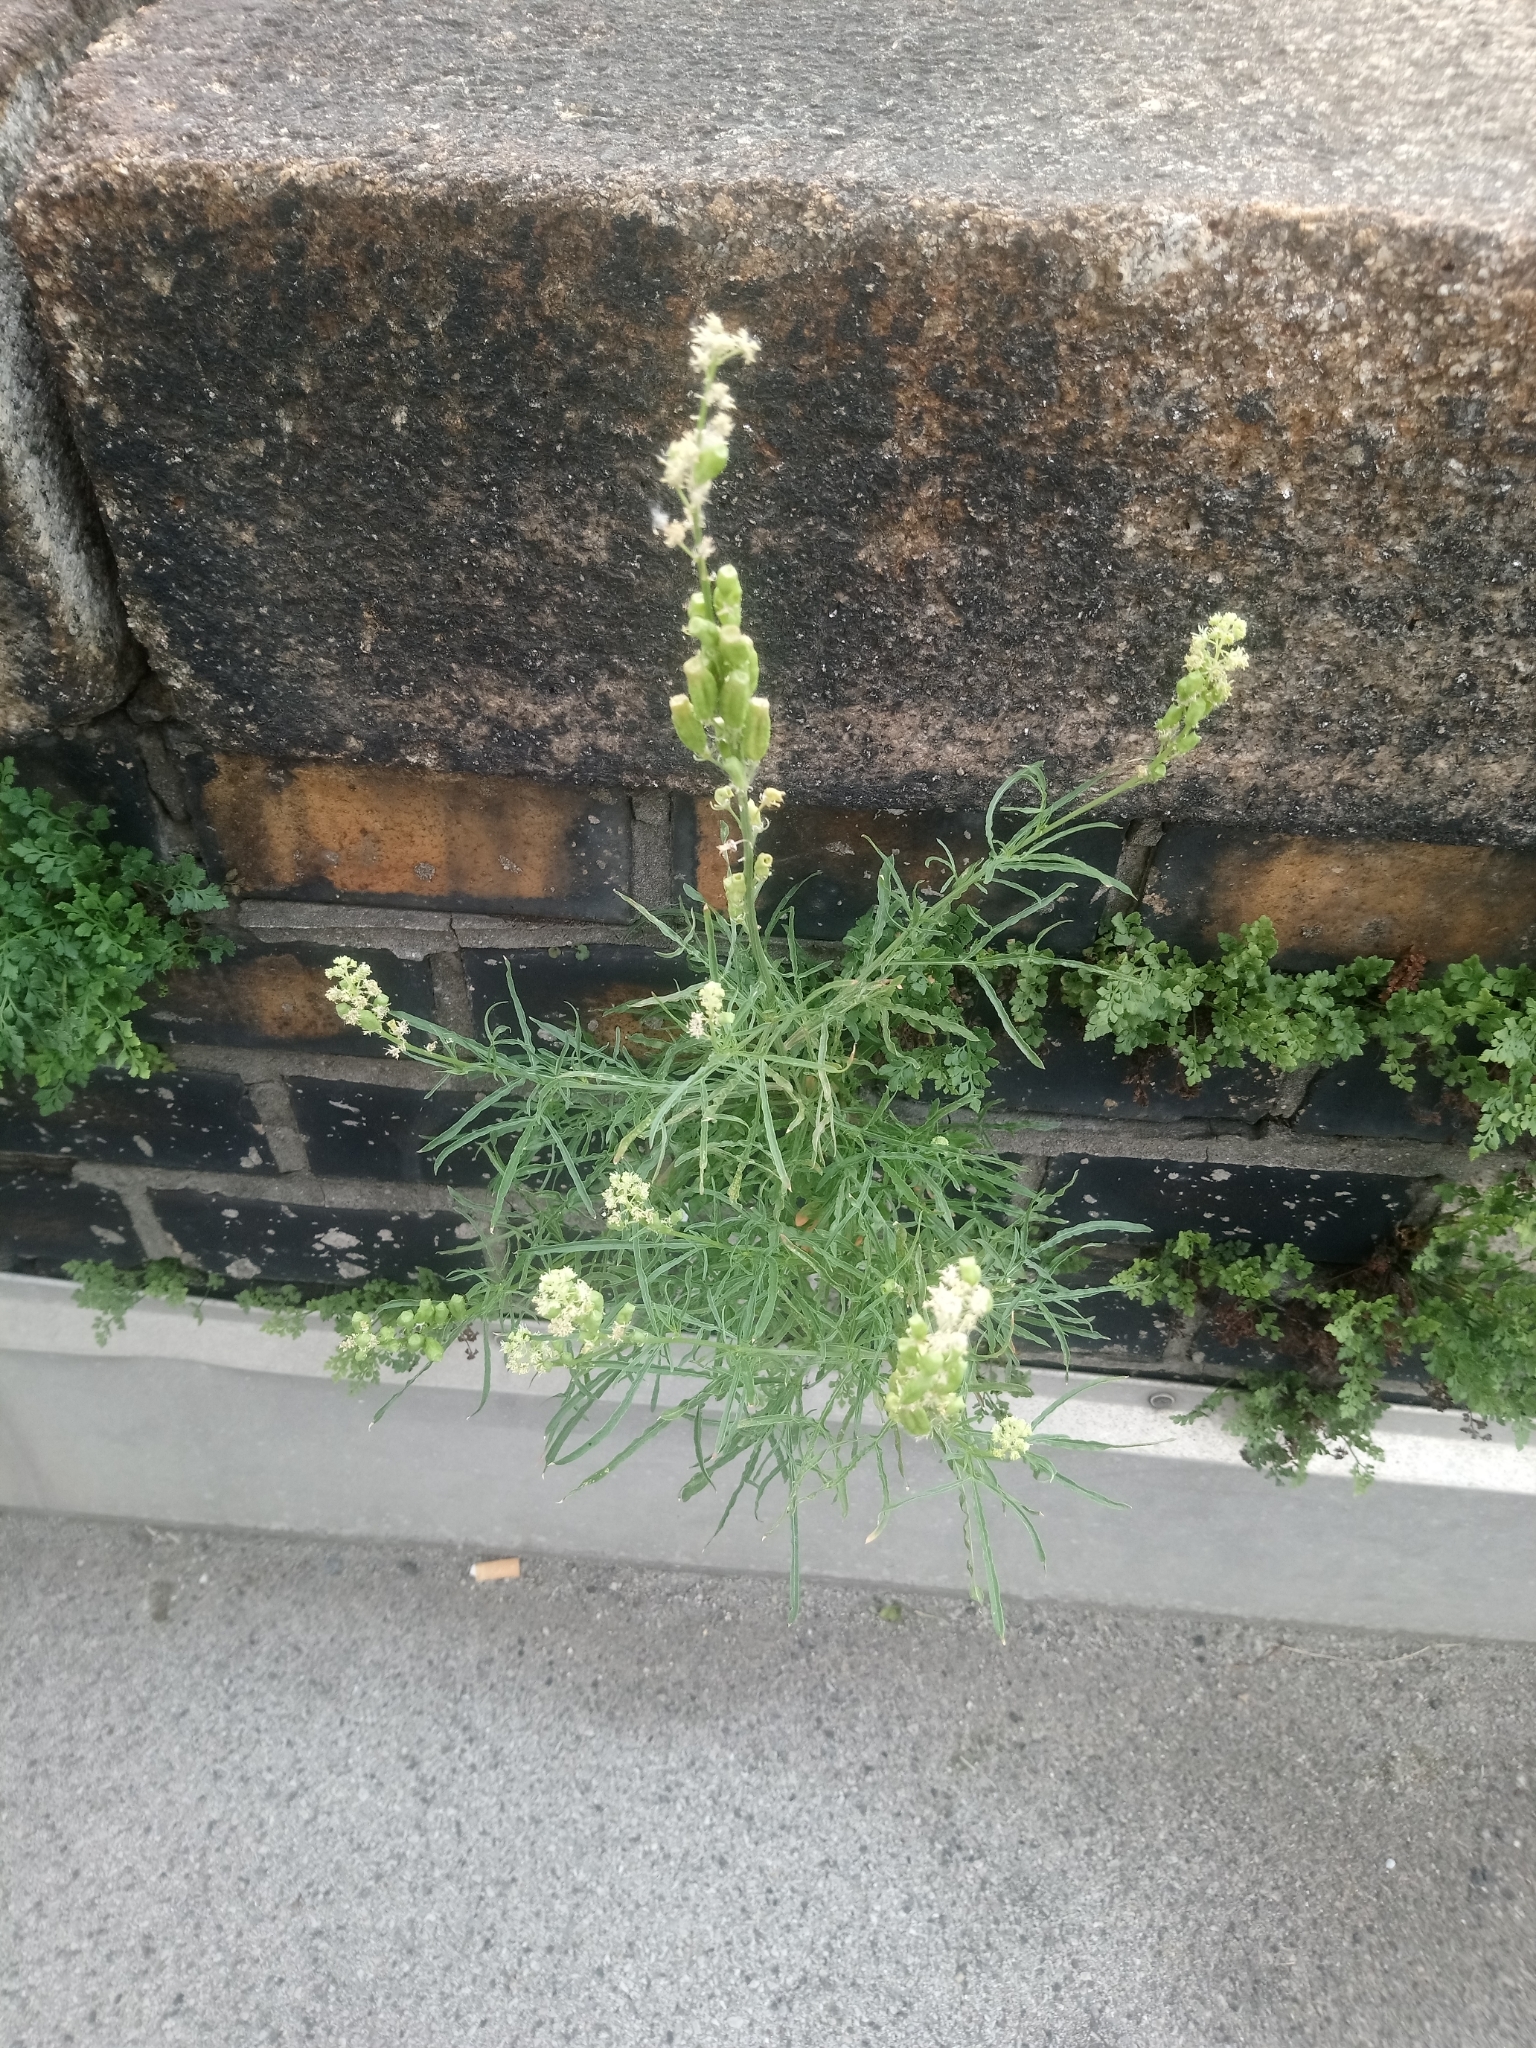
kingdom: Plantae
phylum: Tracheophyta
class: Magnoliopsida
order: Brassicales
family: Resedaceae
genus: Reseda
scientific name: Reseda lutea
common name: Wild mignonette
